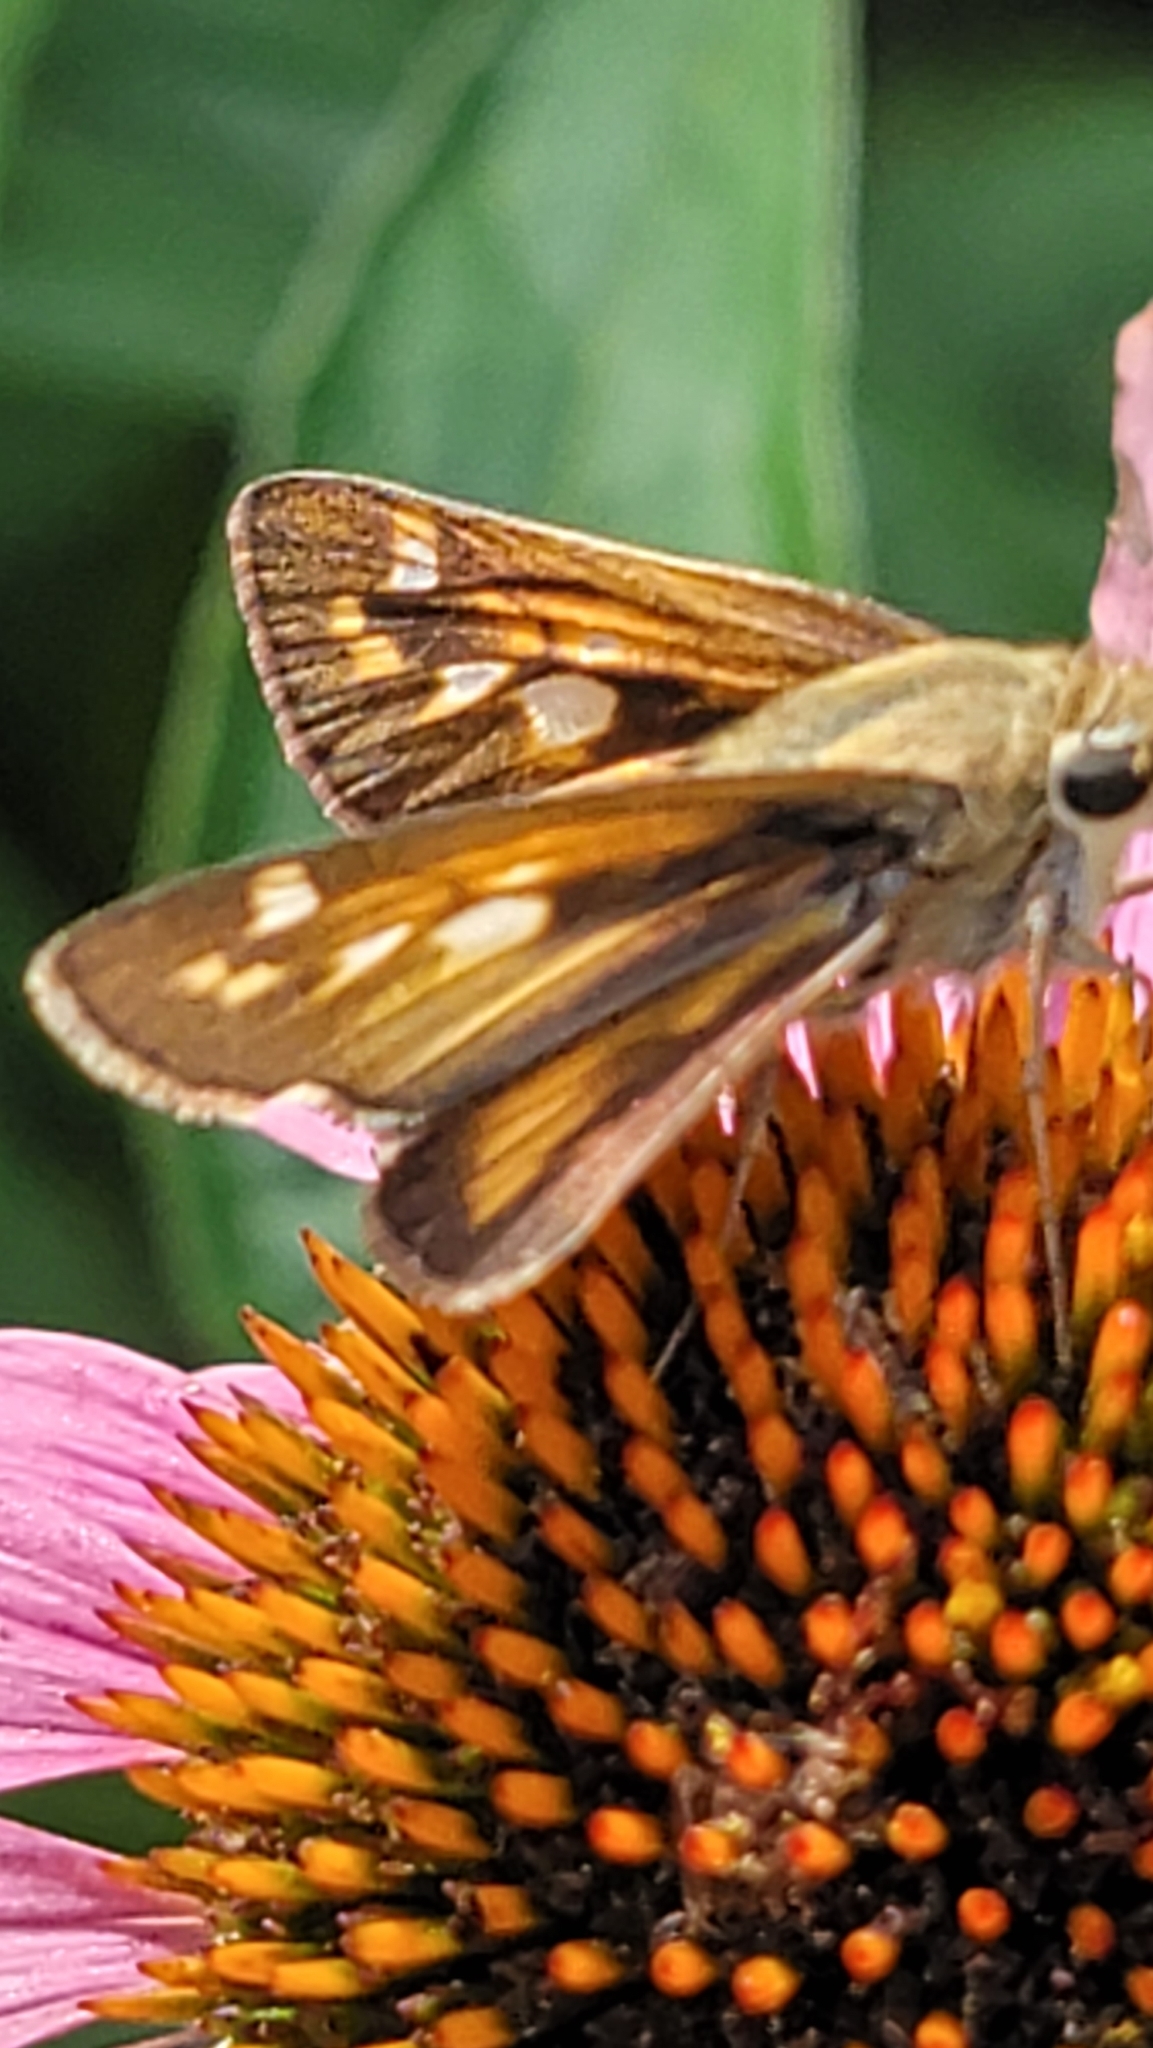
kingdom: Animalia
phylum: Arthropoda
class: Insecta
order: Lepidoptera
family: Hesperiidae
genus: Atalopedes
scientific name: Atalopedes
